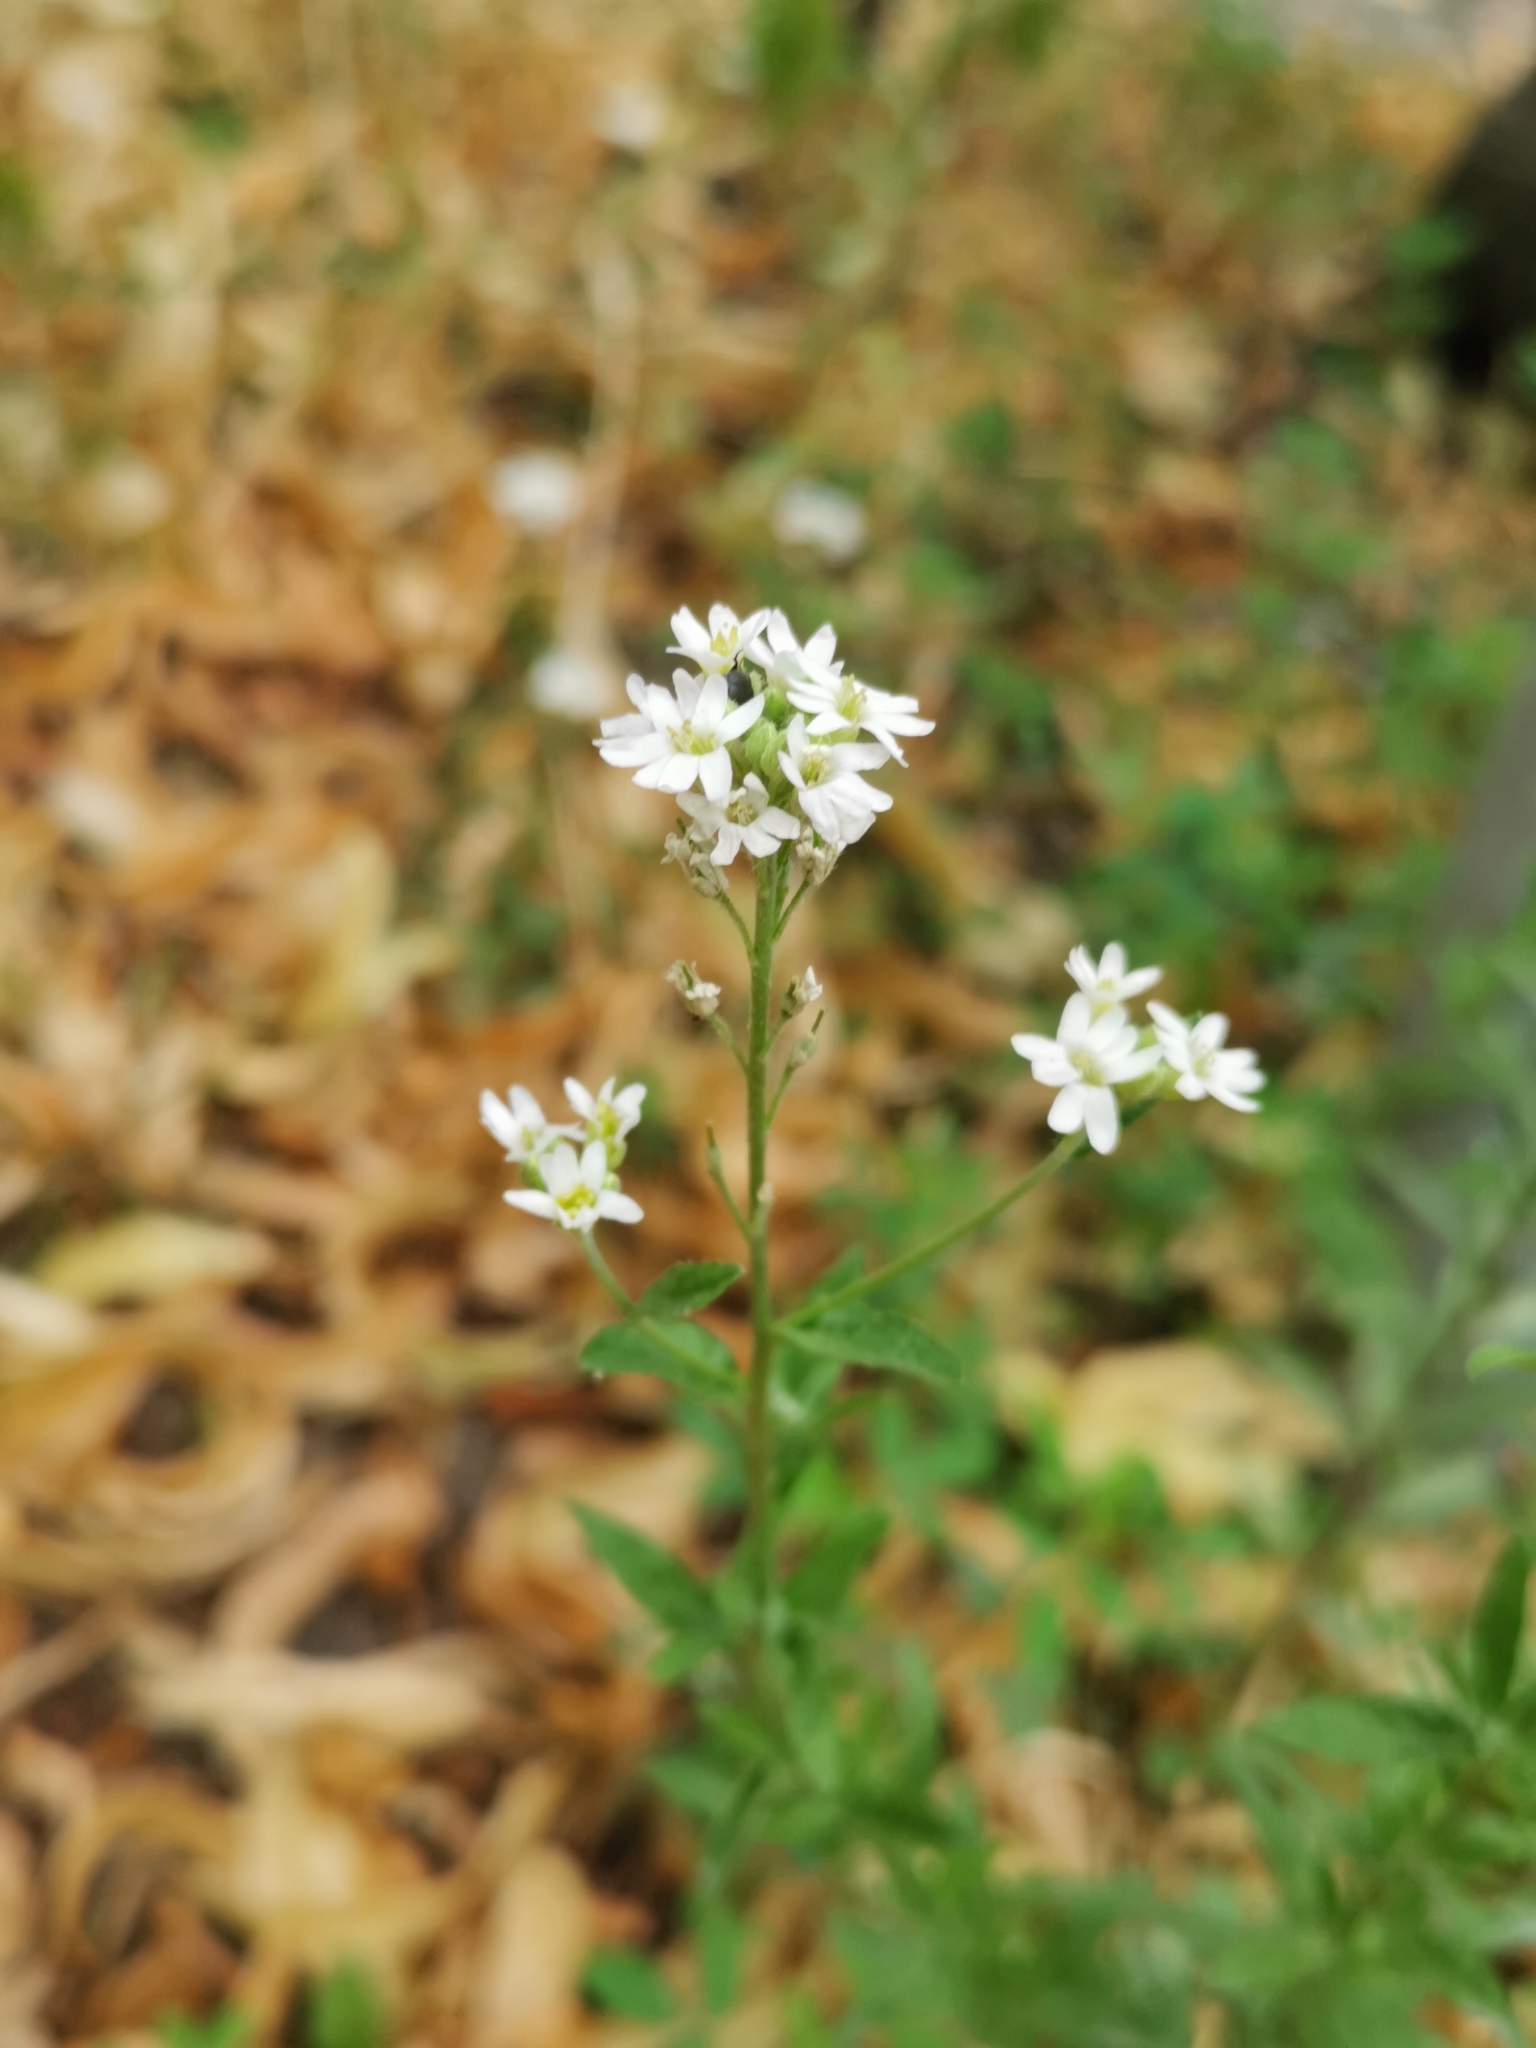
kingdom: Plantae
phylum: Tracheophyta
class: Magnoliopsida
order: Brassicales
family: Brassicaceae
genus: Berteroa
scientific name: Berteroa incana
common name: Hoary alison
